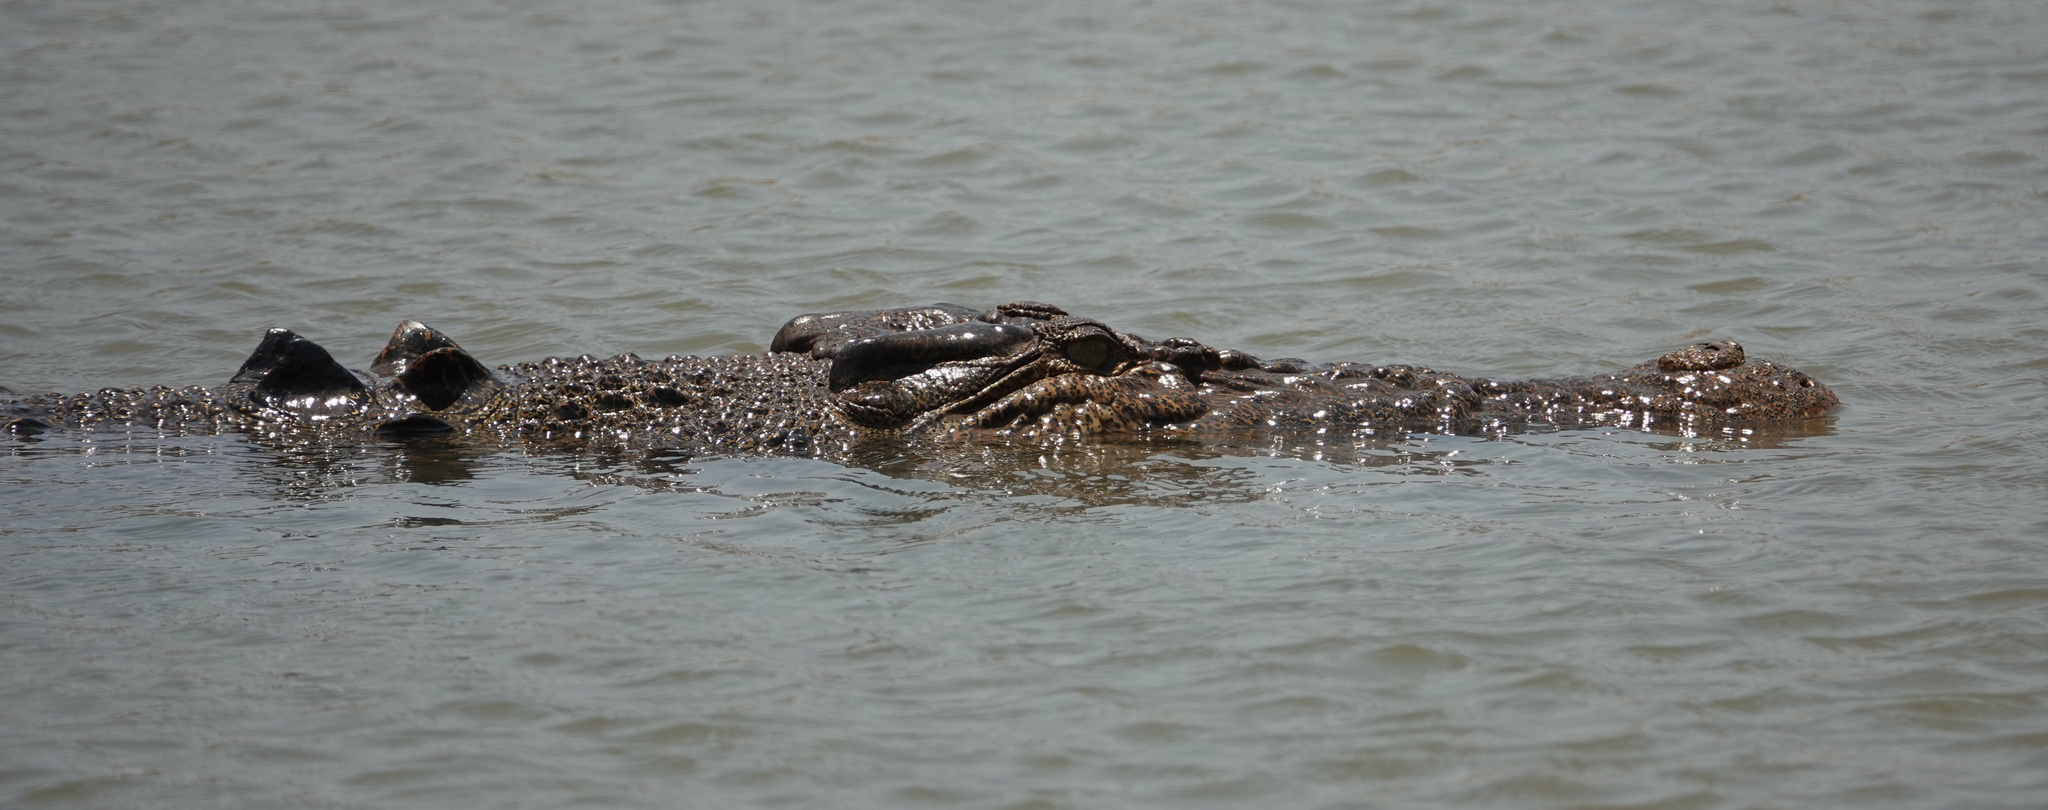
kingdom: Animalia
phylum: Chordata
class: Crocodylia
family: Crocodylidae
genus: Crocodylus
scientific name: Crocodylus porosus
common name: Saltwater crocodile
